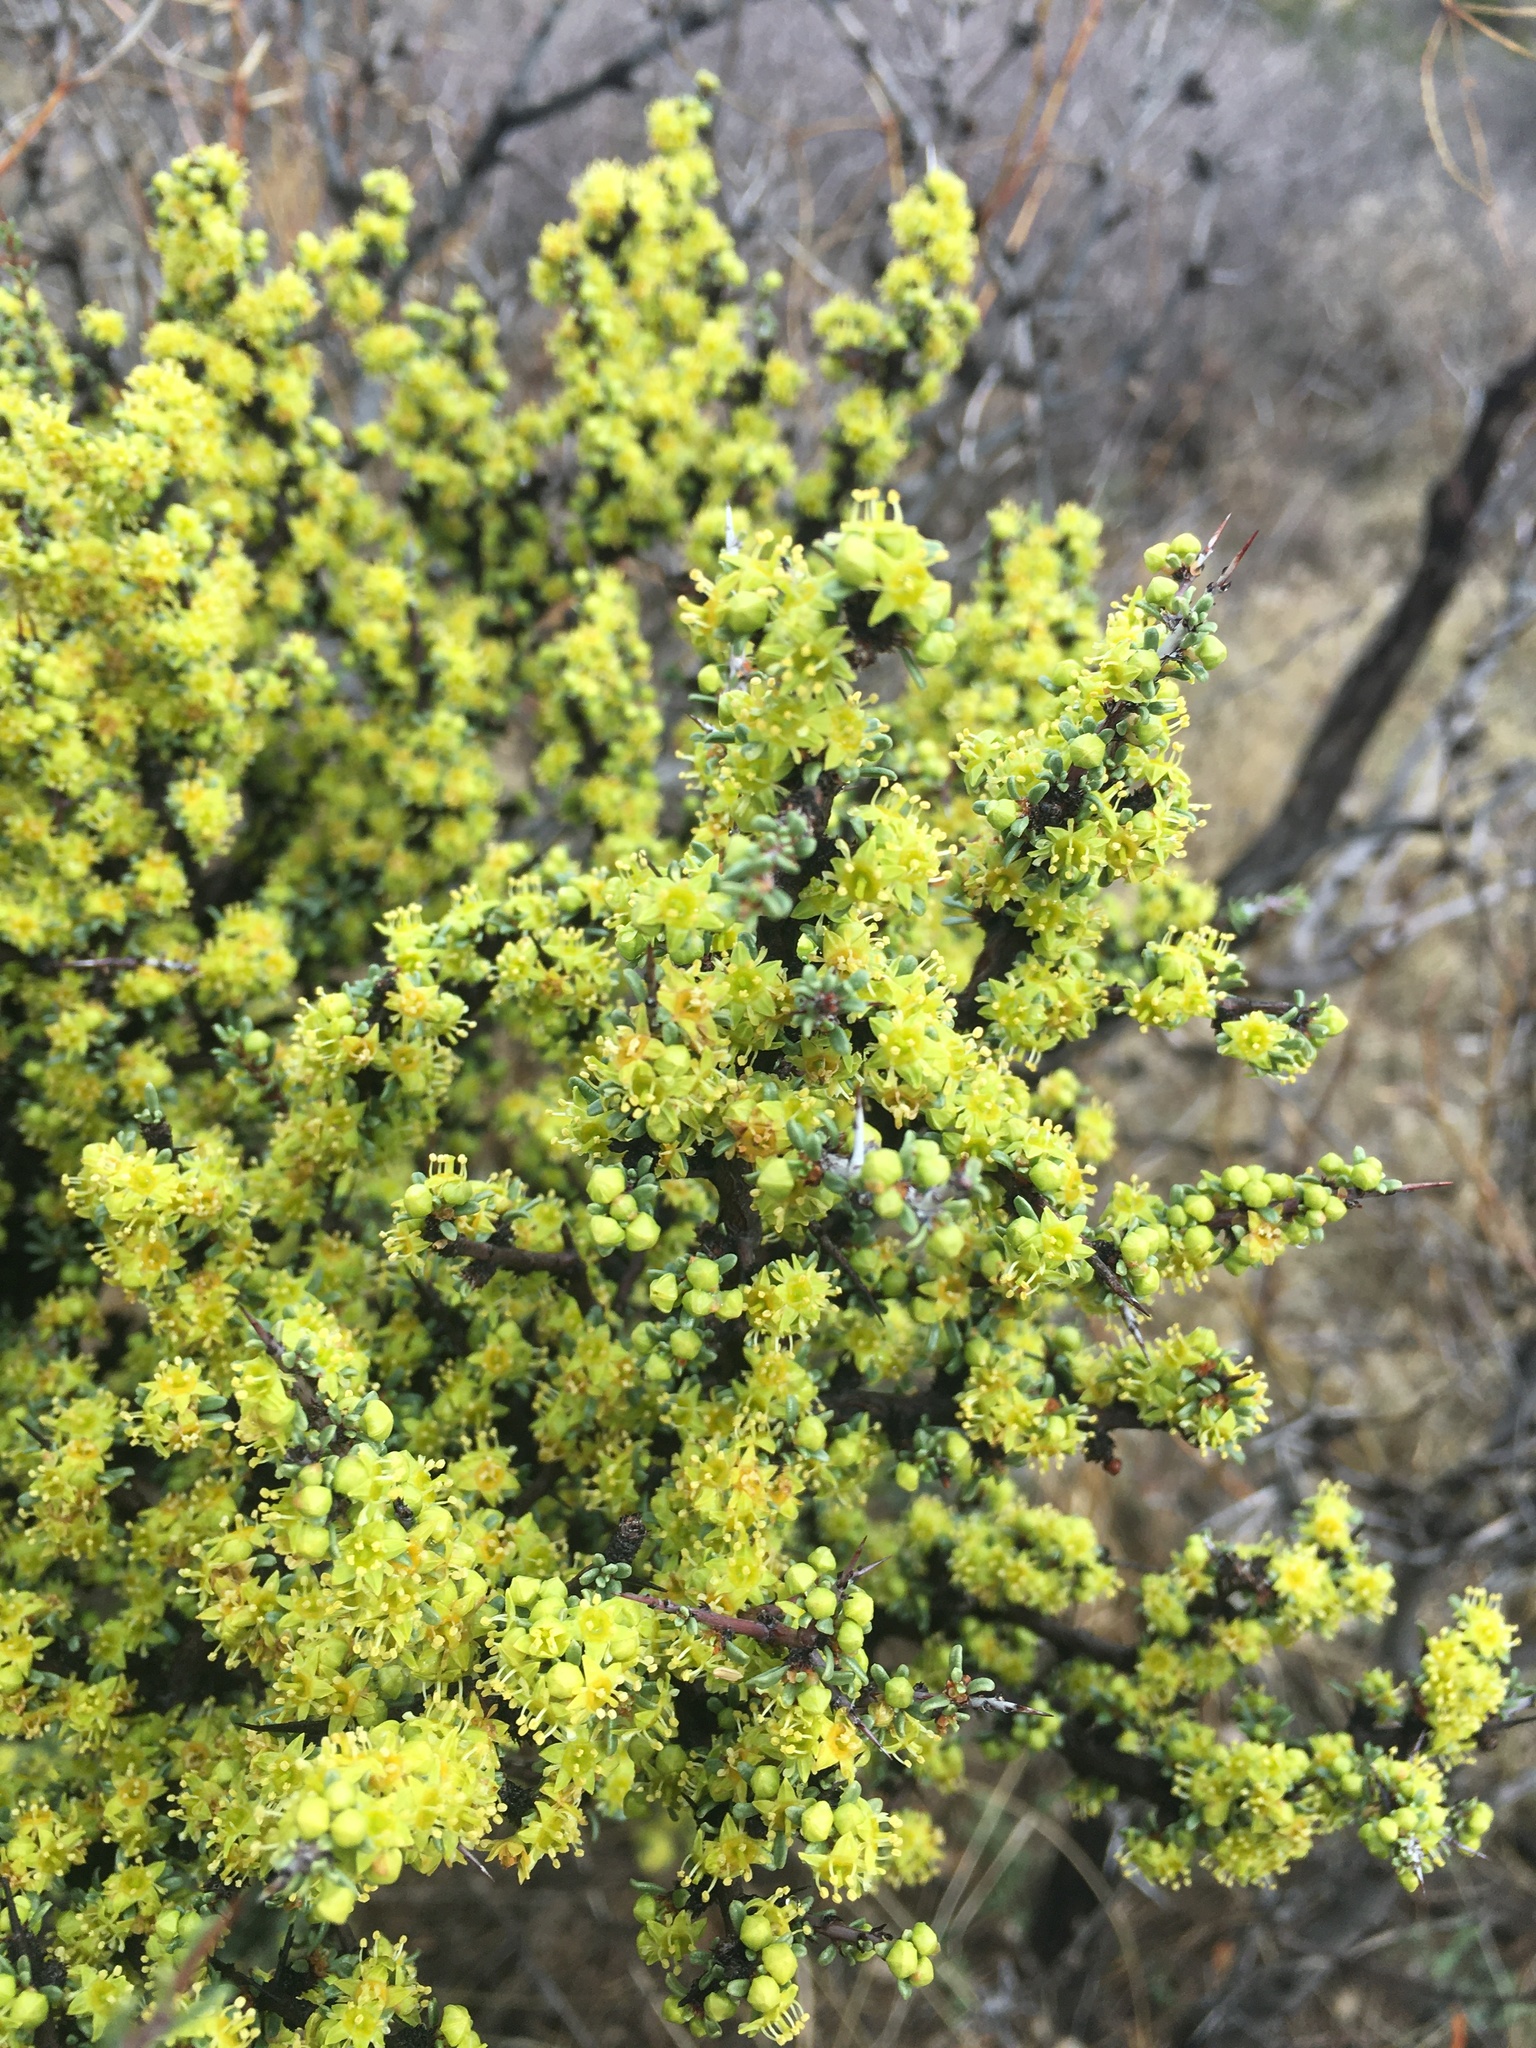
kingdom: Plantae
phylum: Tracheophyta
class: Magnoliopsida
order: Rosales
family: Rhamnaceae
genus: Condalia
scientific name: Condalia ericoides
